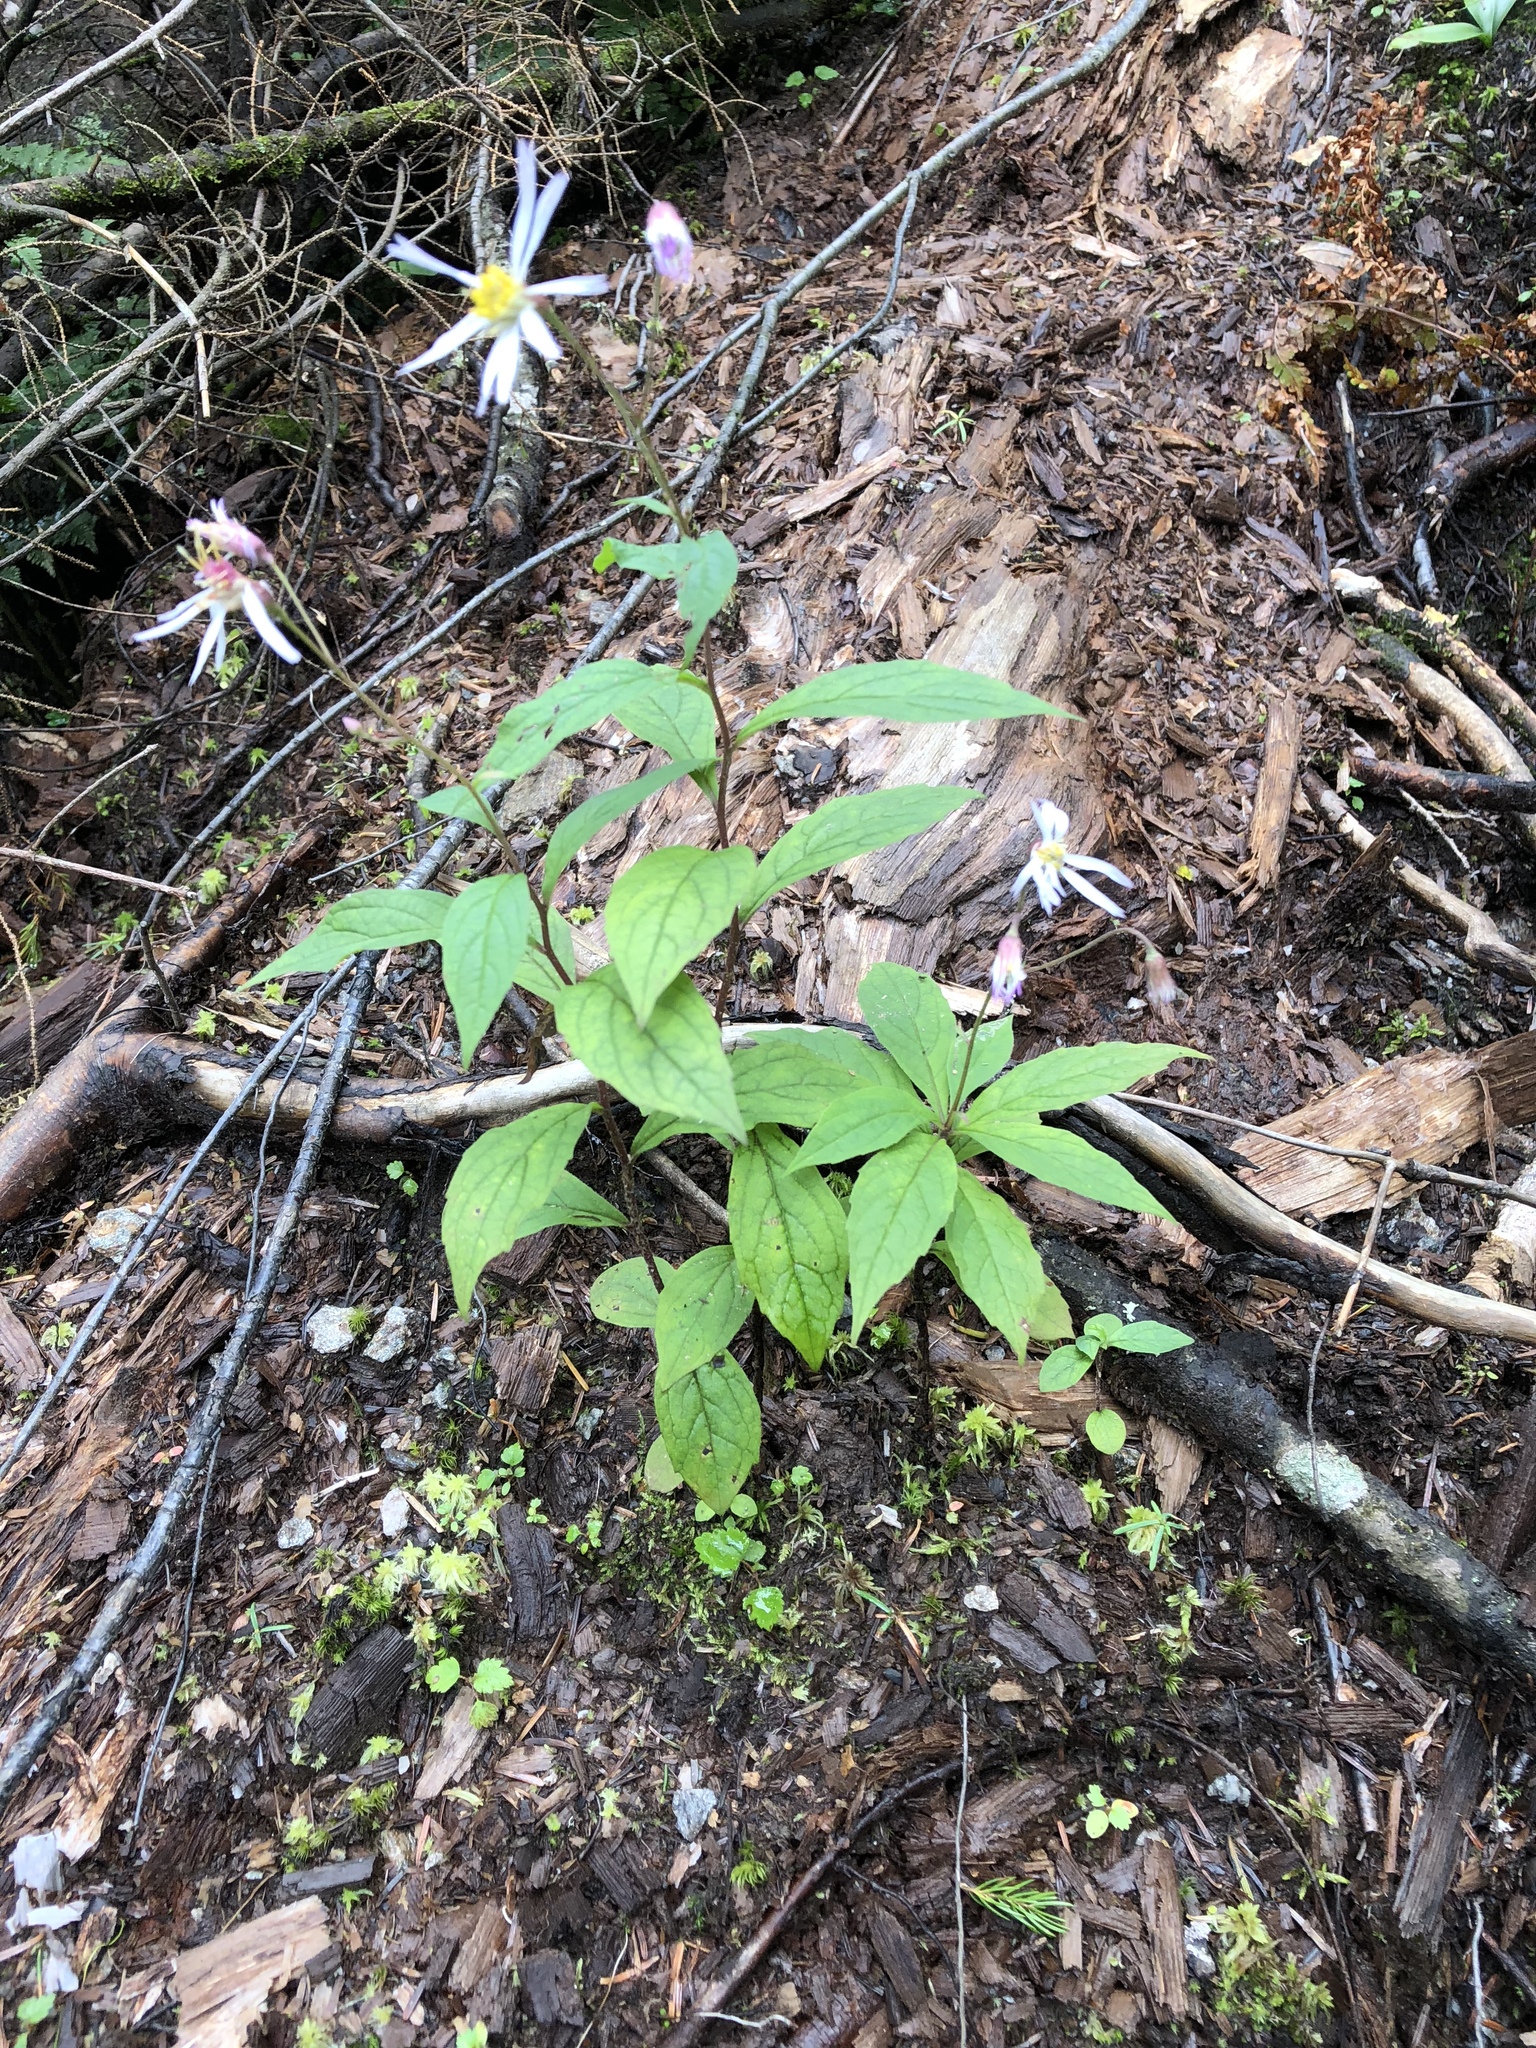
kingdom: Plantae
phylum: Tracheophyta
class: Magnoliopsida
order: Asterales
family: Asteraceae
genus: Oclemena
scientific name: Oclemena acuminata
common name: Mountain aster
